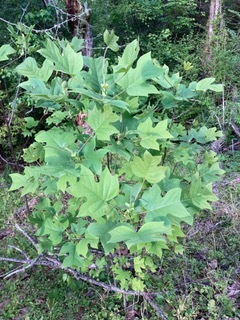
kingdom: Plantae
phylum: Tracheophyta
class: Magnoliopsida
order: Magnoliales
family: Magnoliaceae
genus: Liriodendron
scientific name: Liriodendron tulipifera
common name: Tulip tree
